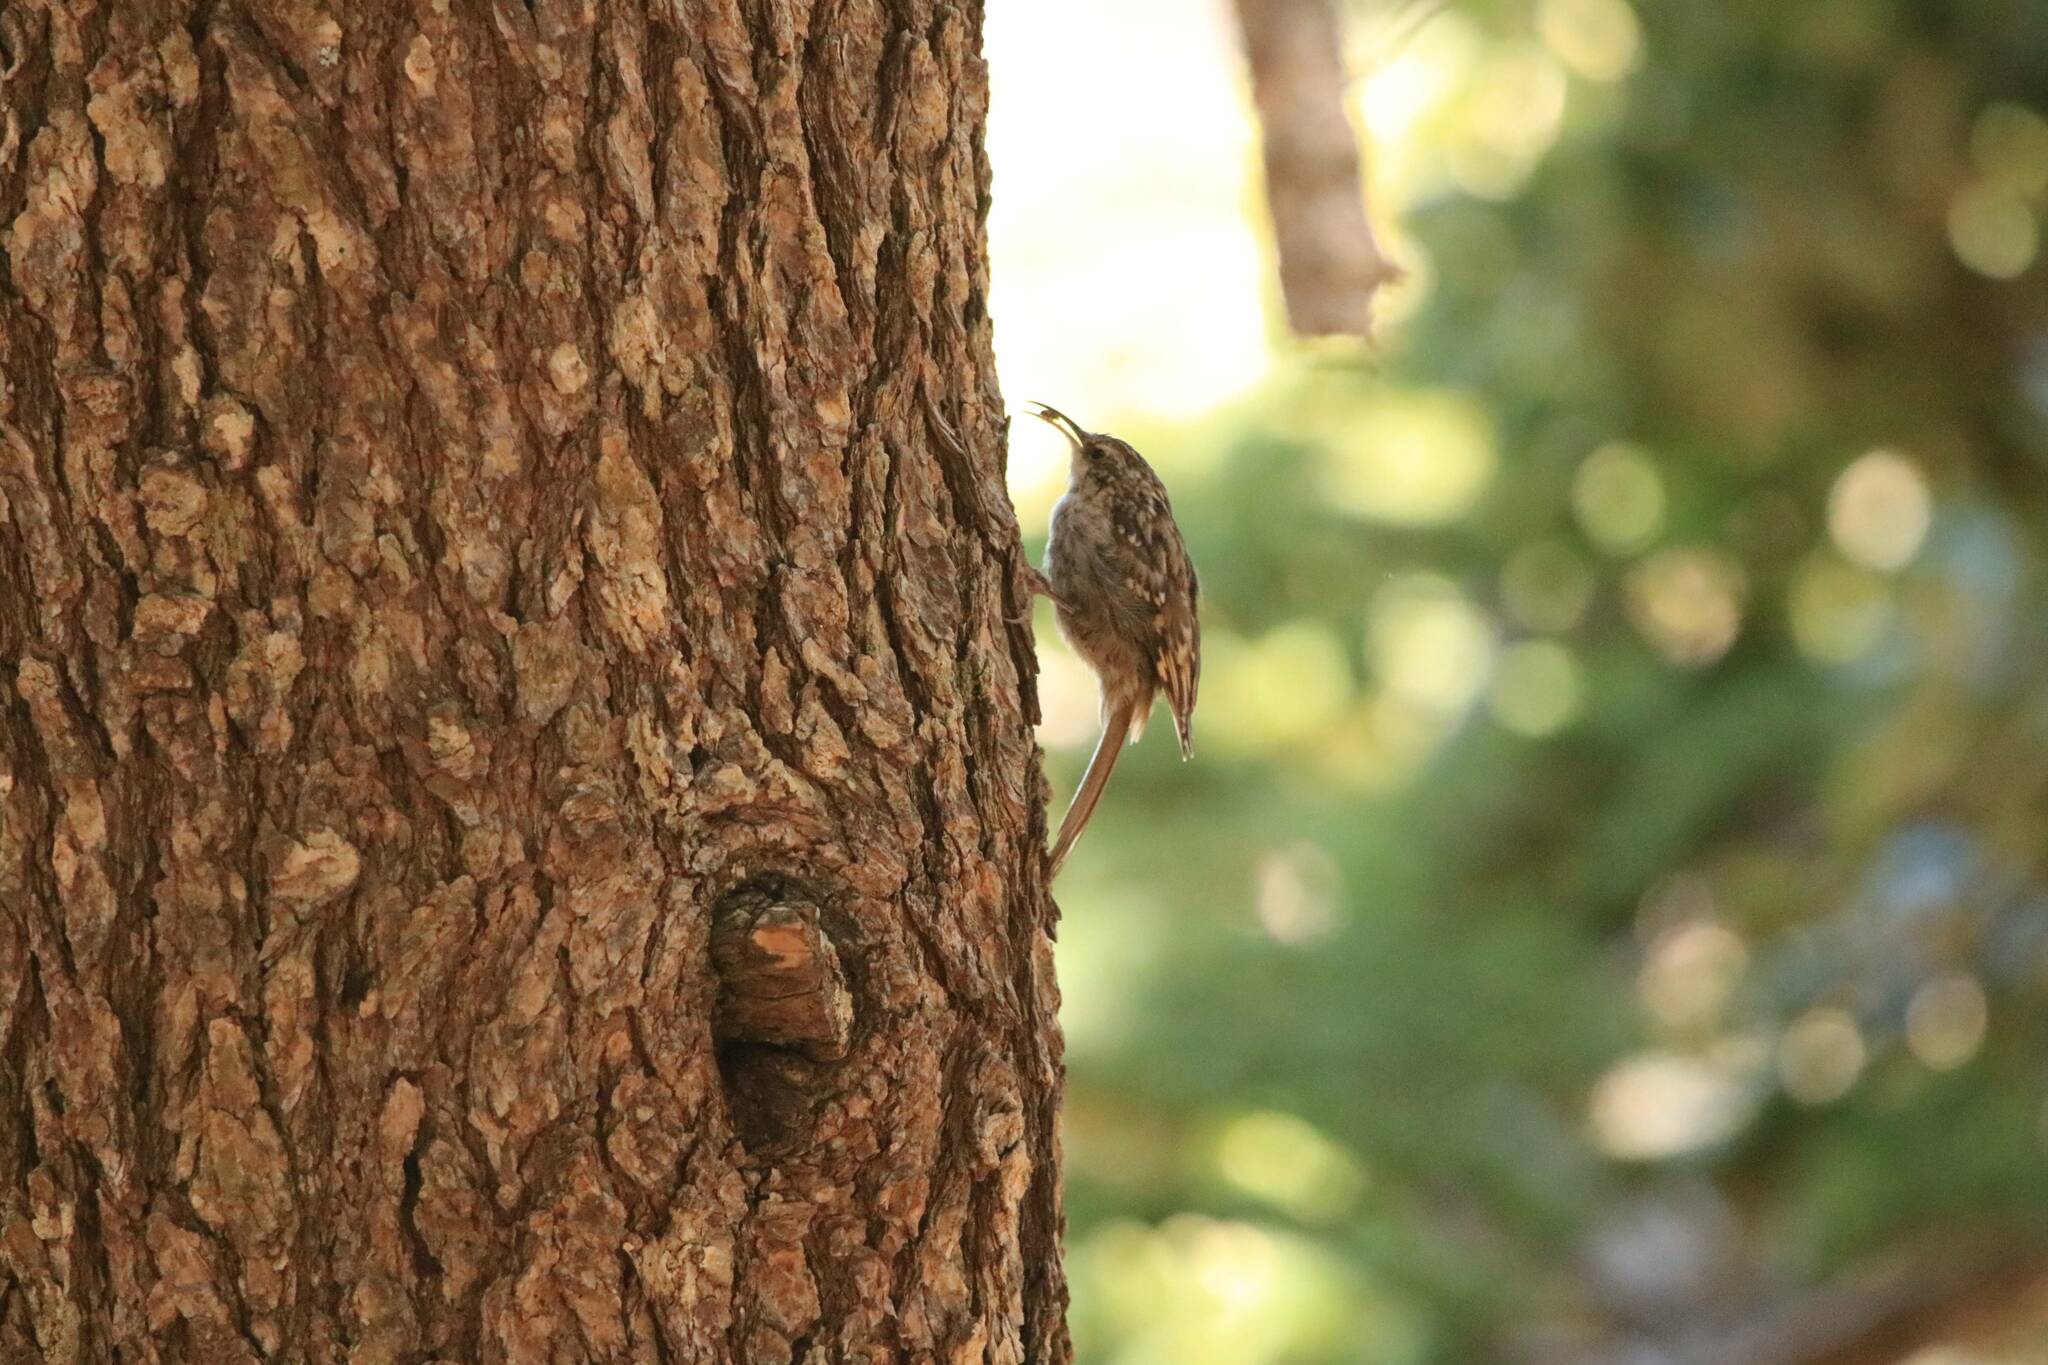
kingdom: Animalia
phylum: Chordata
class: Aves
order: Passeriformes
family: Certhiidae
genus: Certhia
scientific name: Certhia brachydactyla
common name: Short-toed treecreeper
